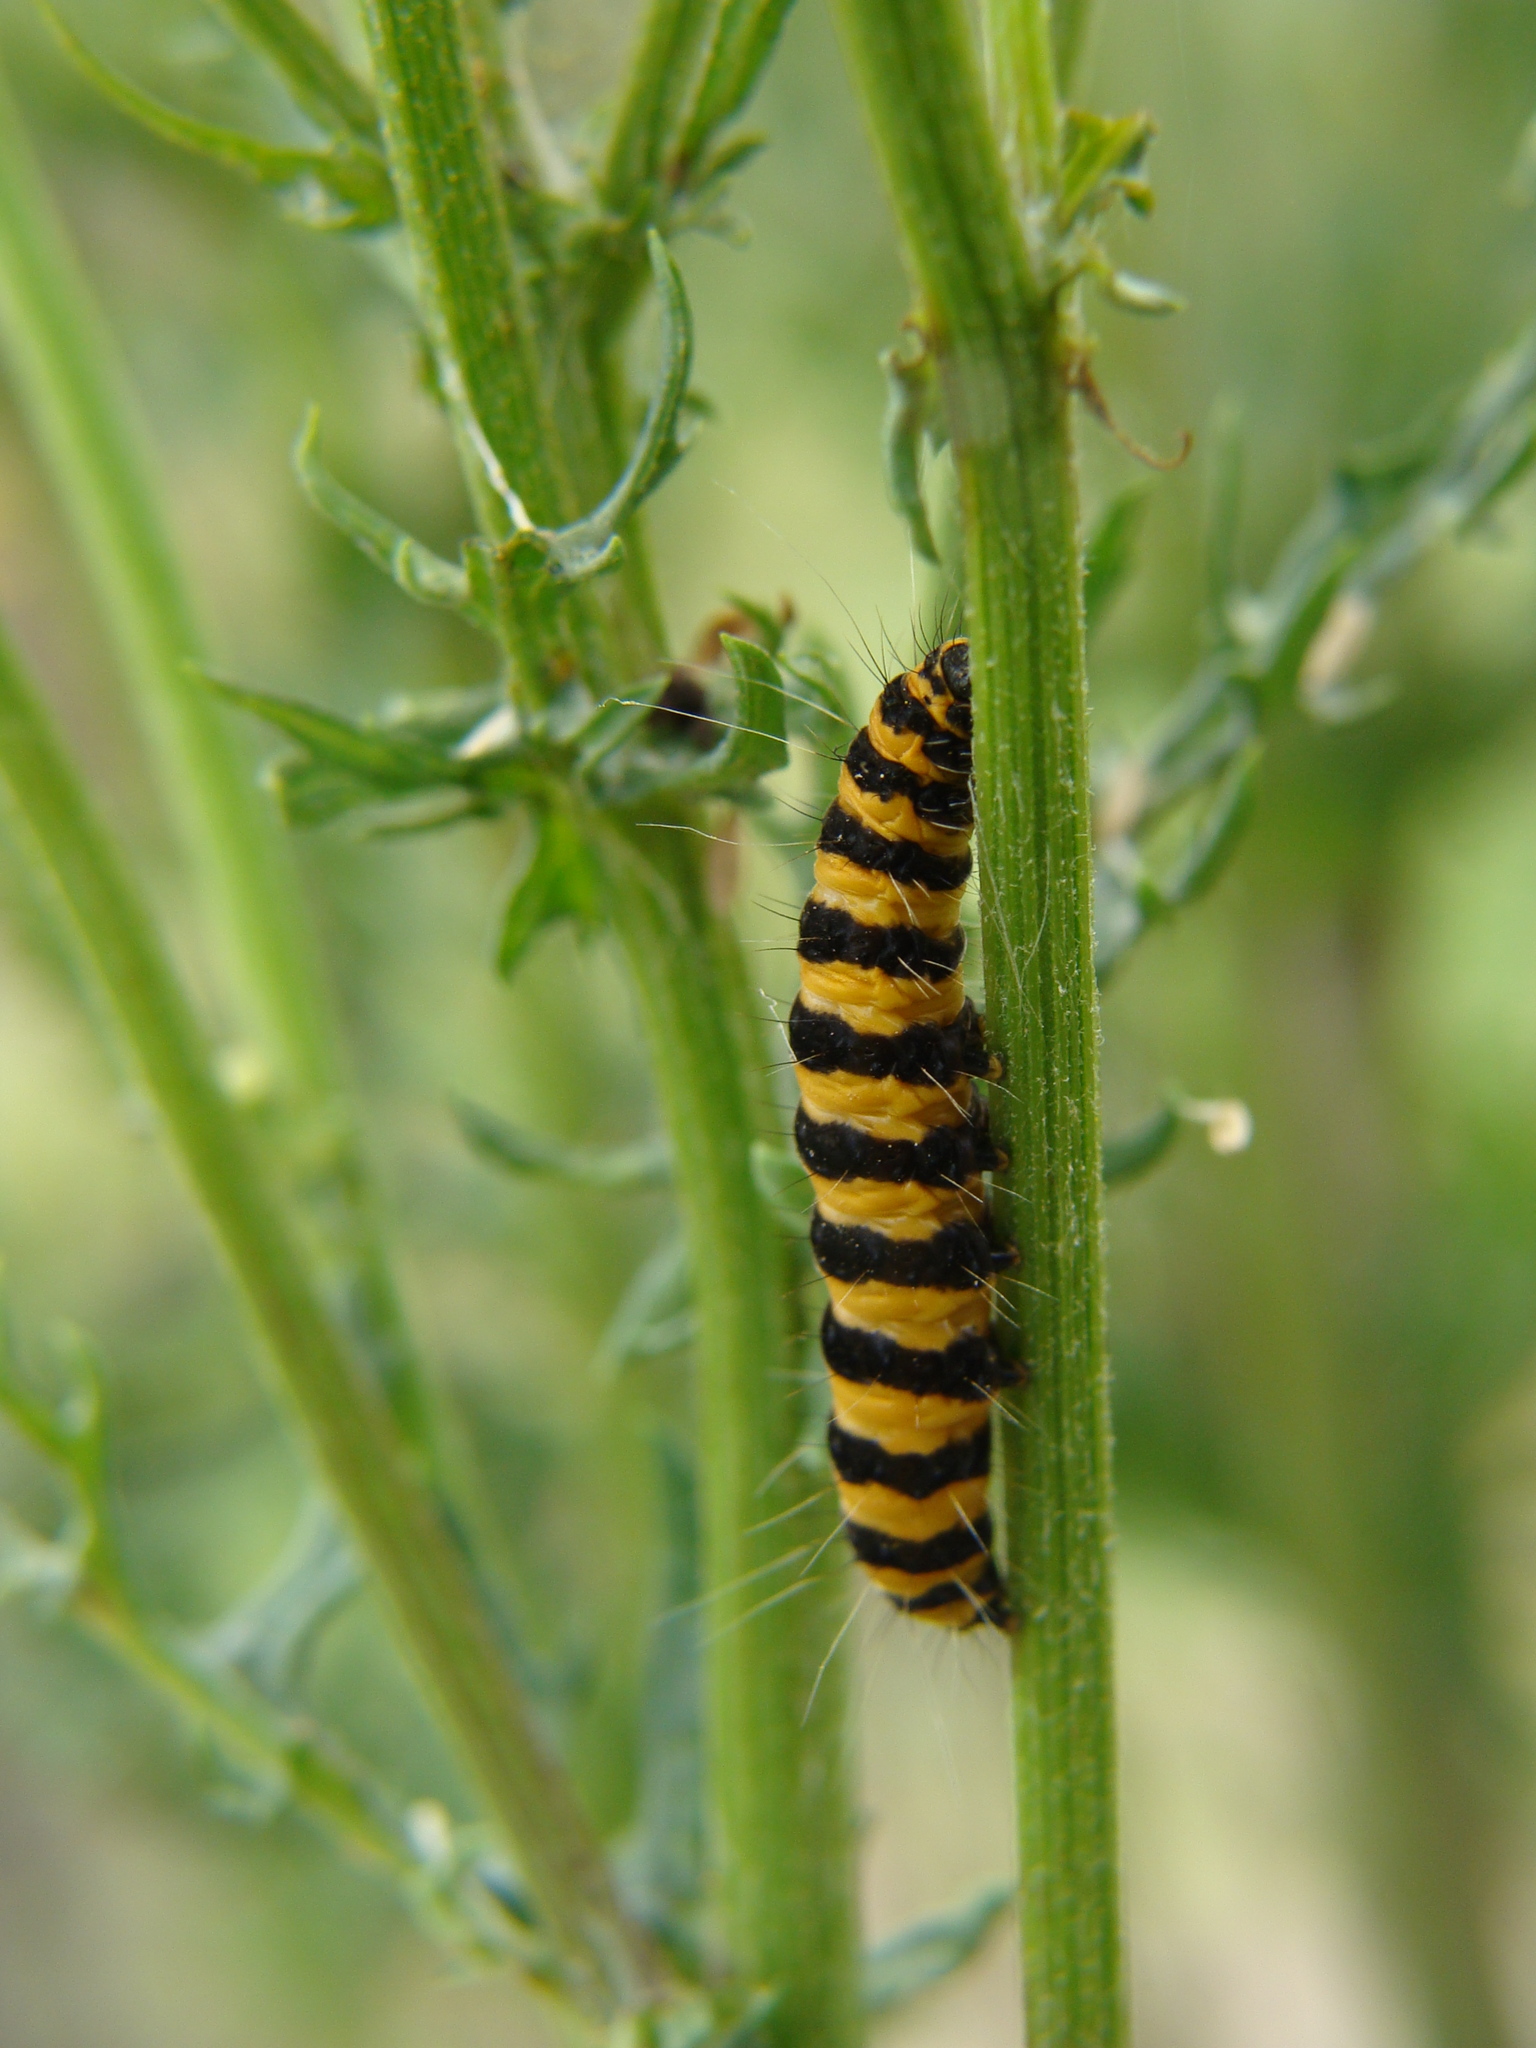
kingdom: Animalia
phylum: Arthropoda
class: Insecta
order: Lepidoptera
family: Erebidae
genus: Tyria
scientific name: Tyria jacobaeae
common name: Cinnabar
